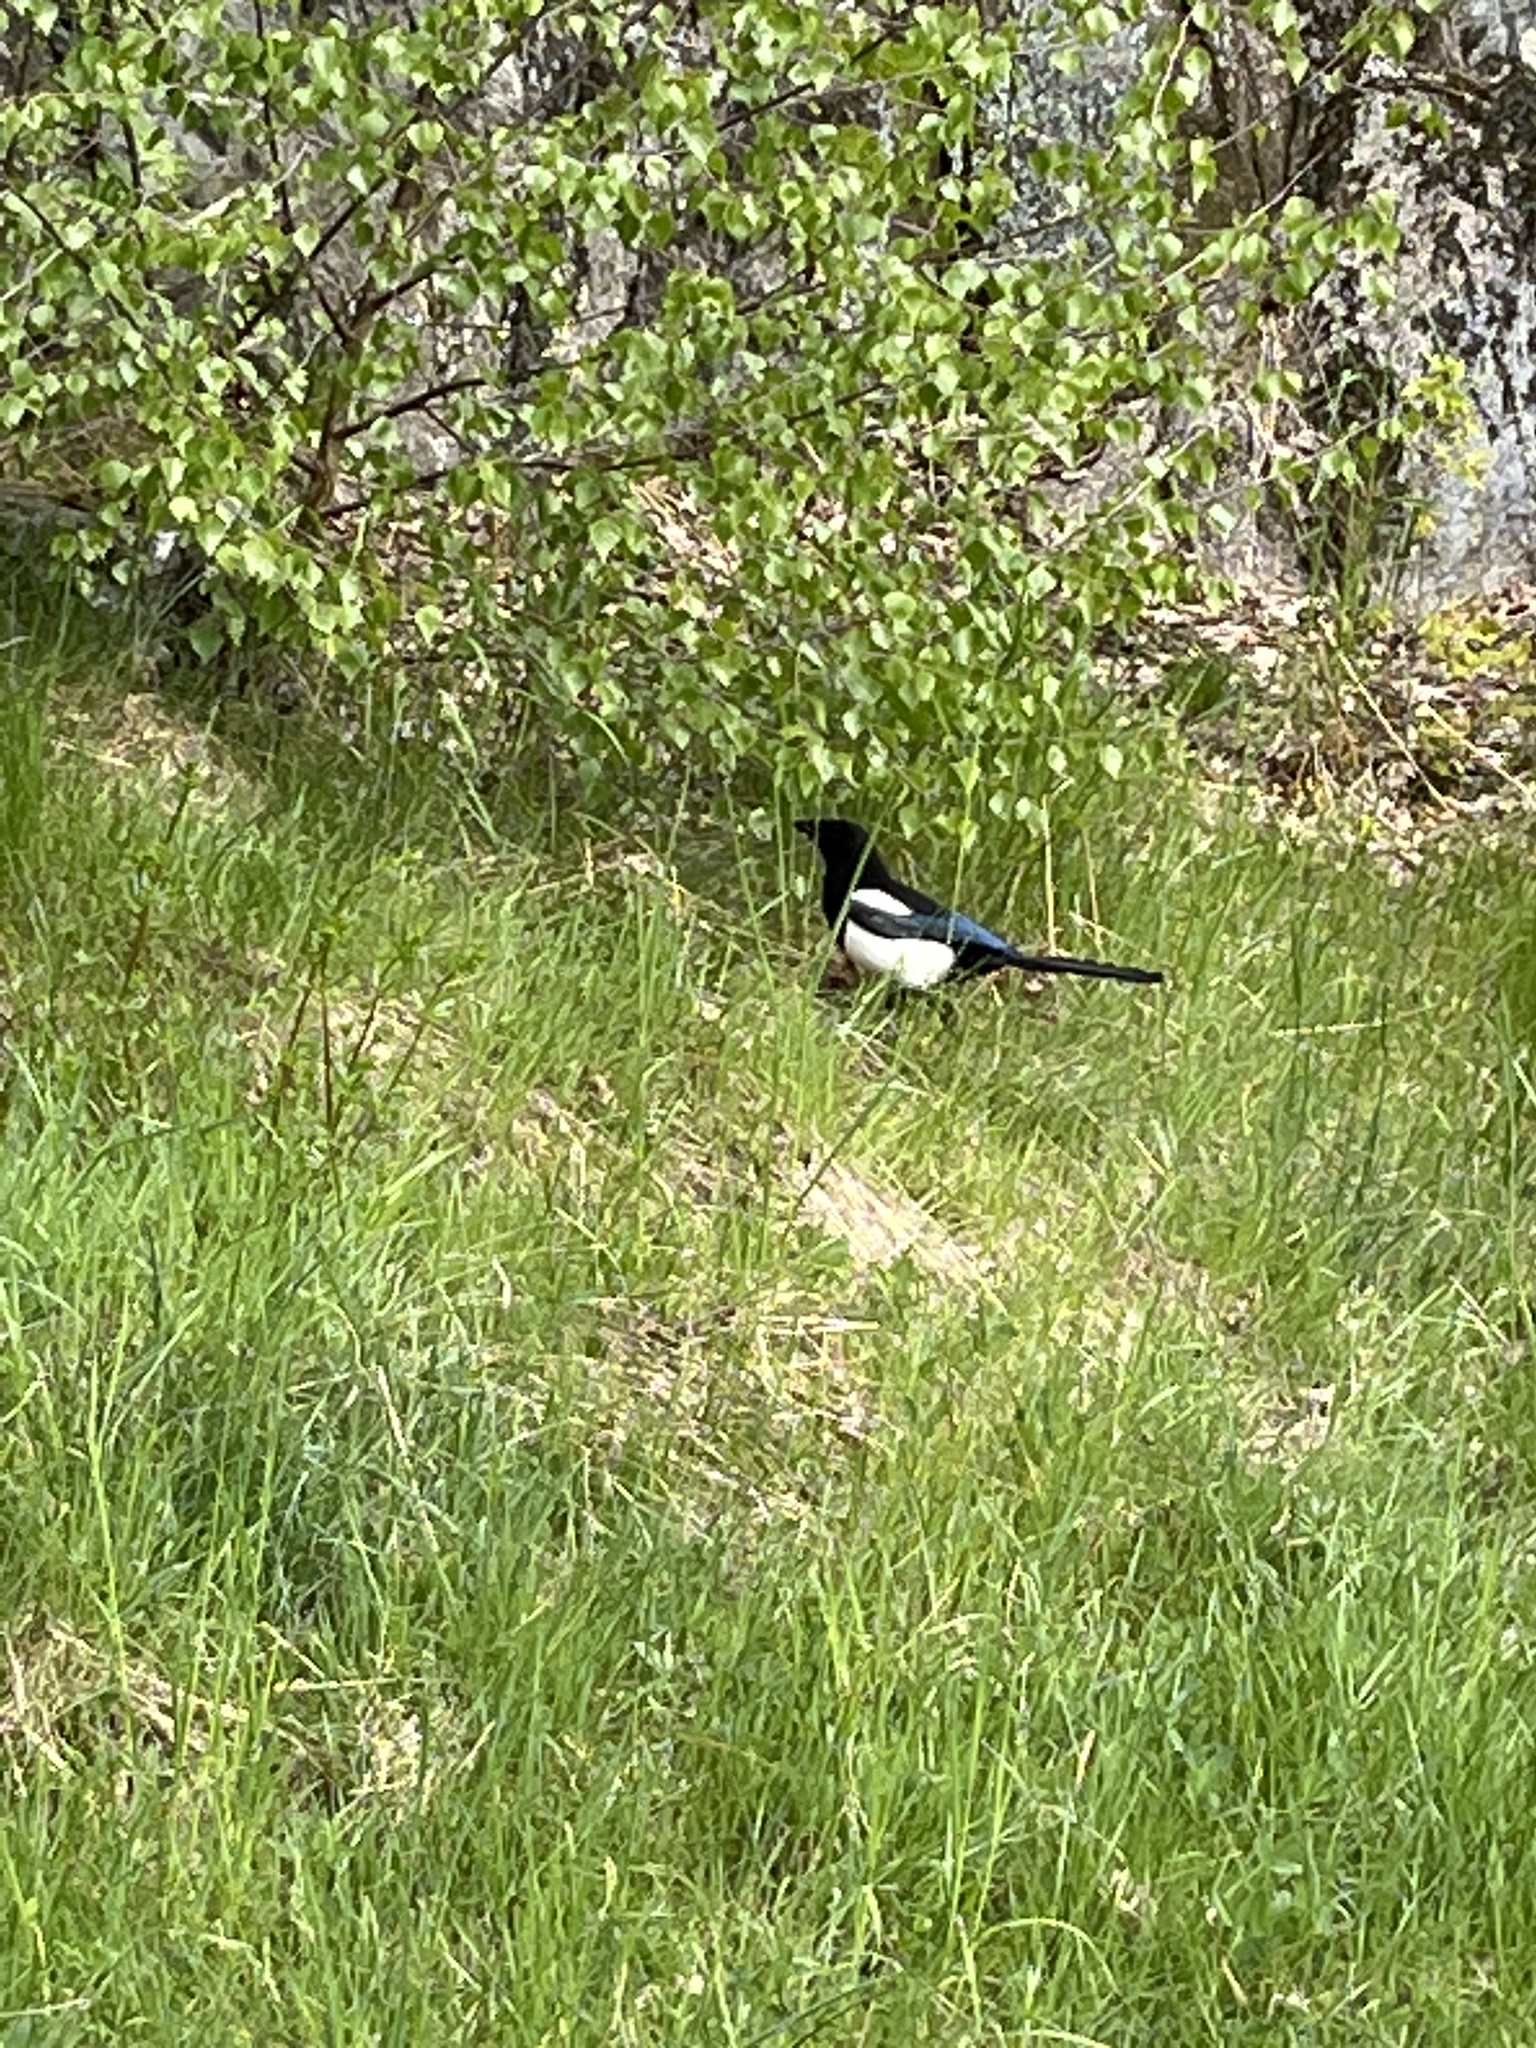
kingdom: Animalia
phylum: Chordata
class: Aves
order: Passeriformes
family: Corvidae
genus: Pica
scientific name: Pica pica
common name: Eurasian magpie
